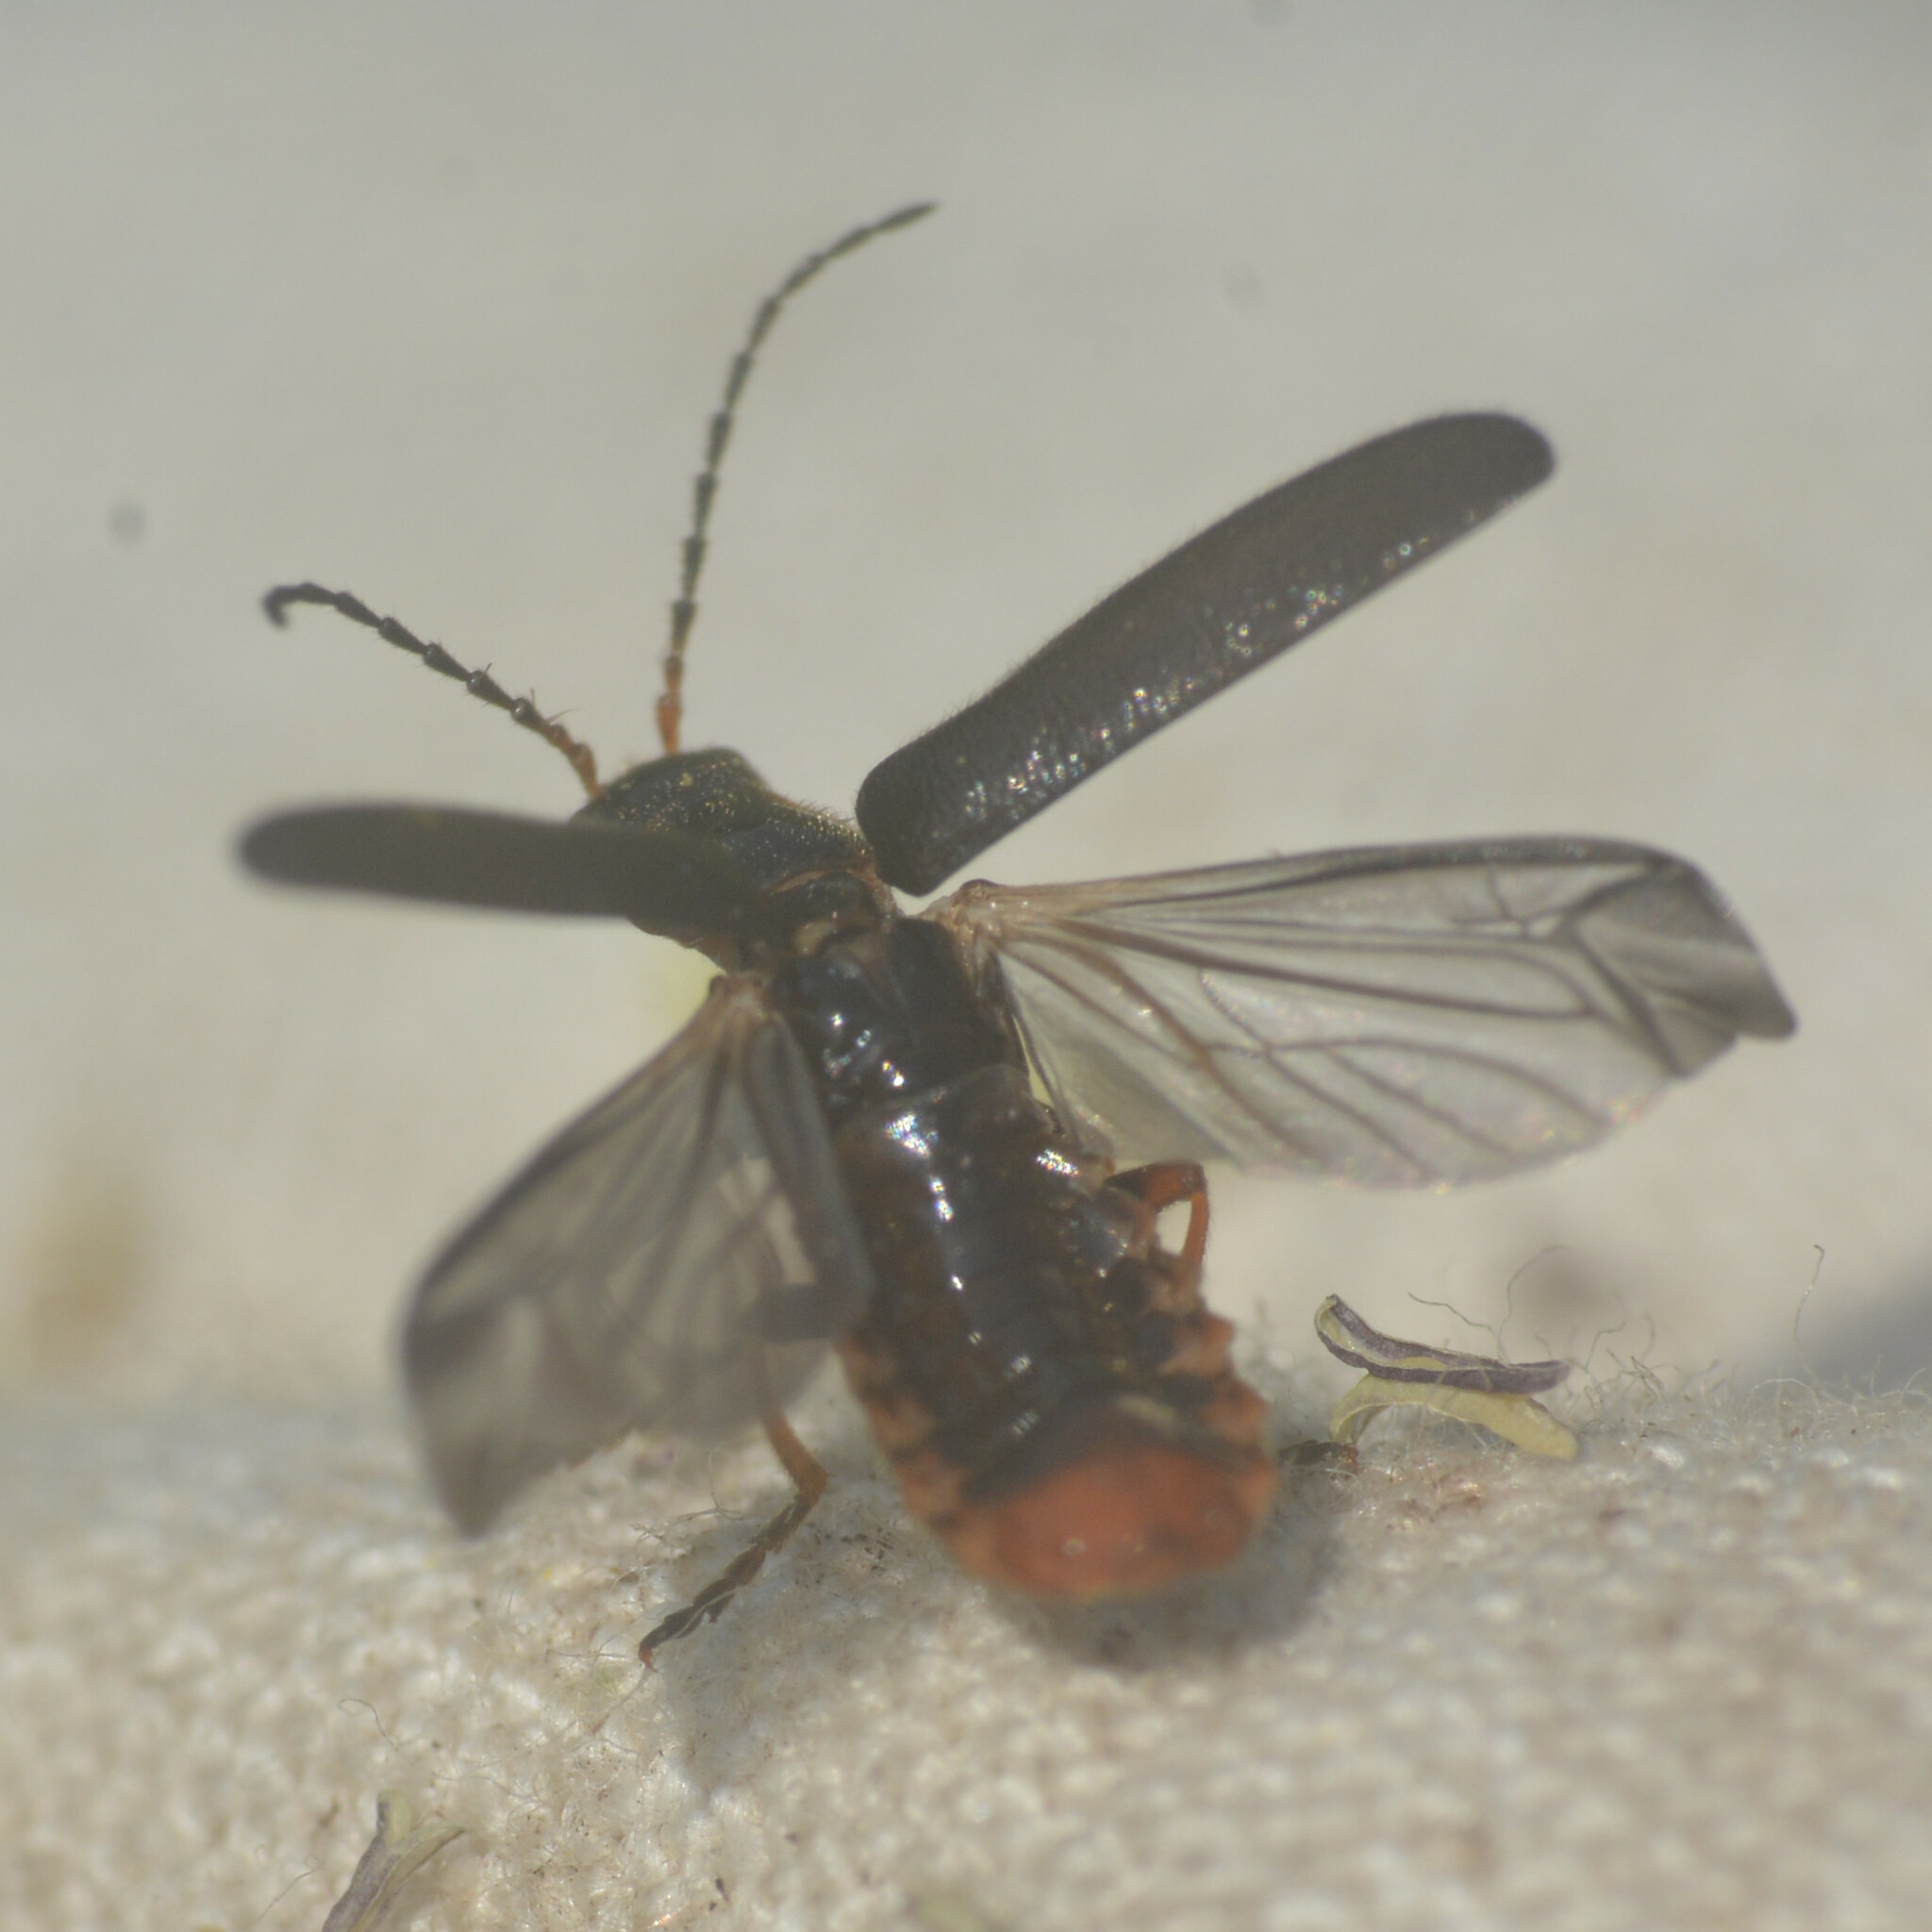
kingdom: Animalia
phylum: Arthropoda
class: Insecta
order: Coleoptera
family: Cantharidae
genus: Cantharis
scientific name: Cantharis flavilabris
